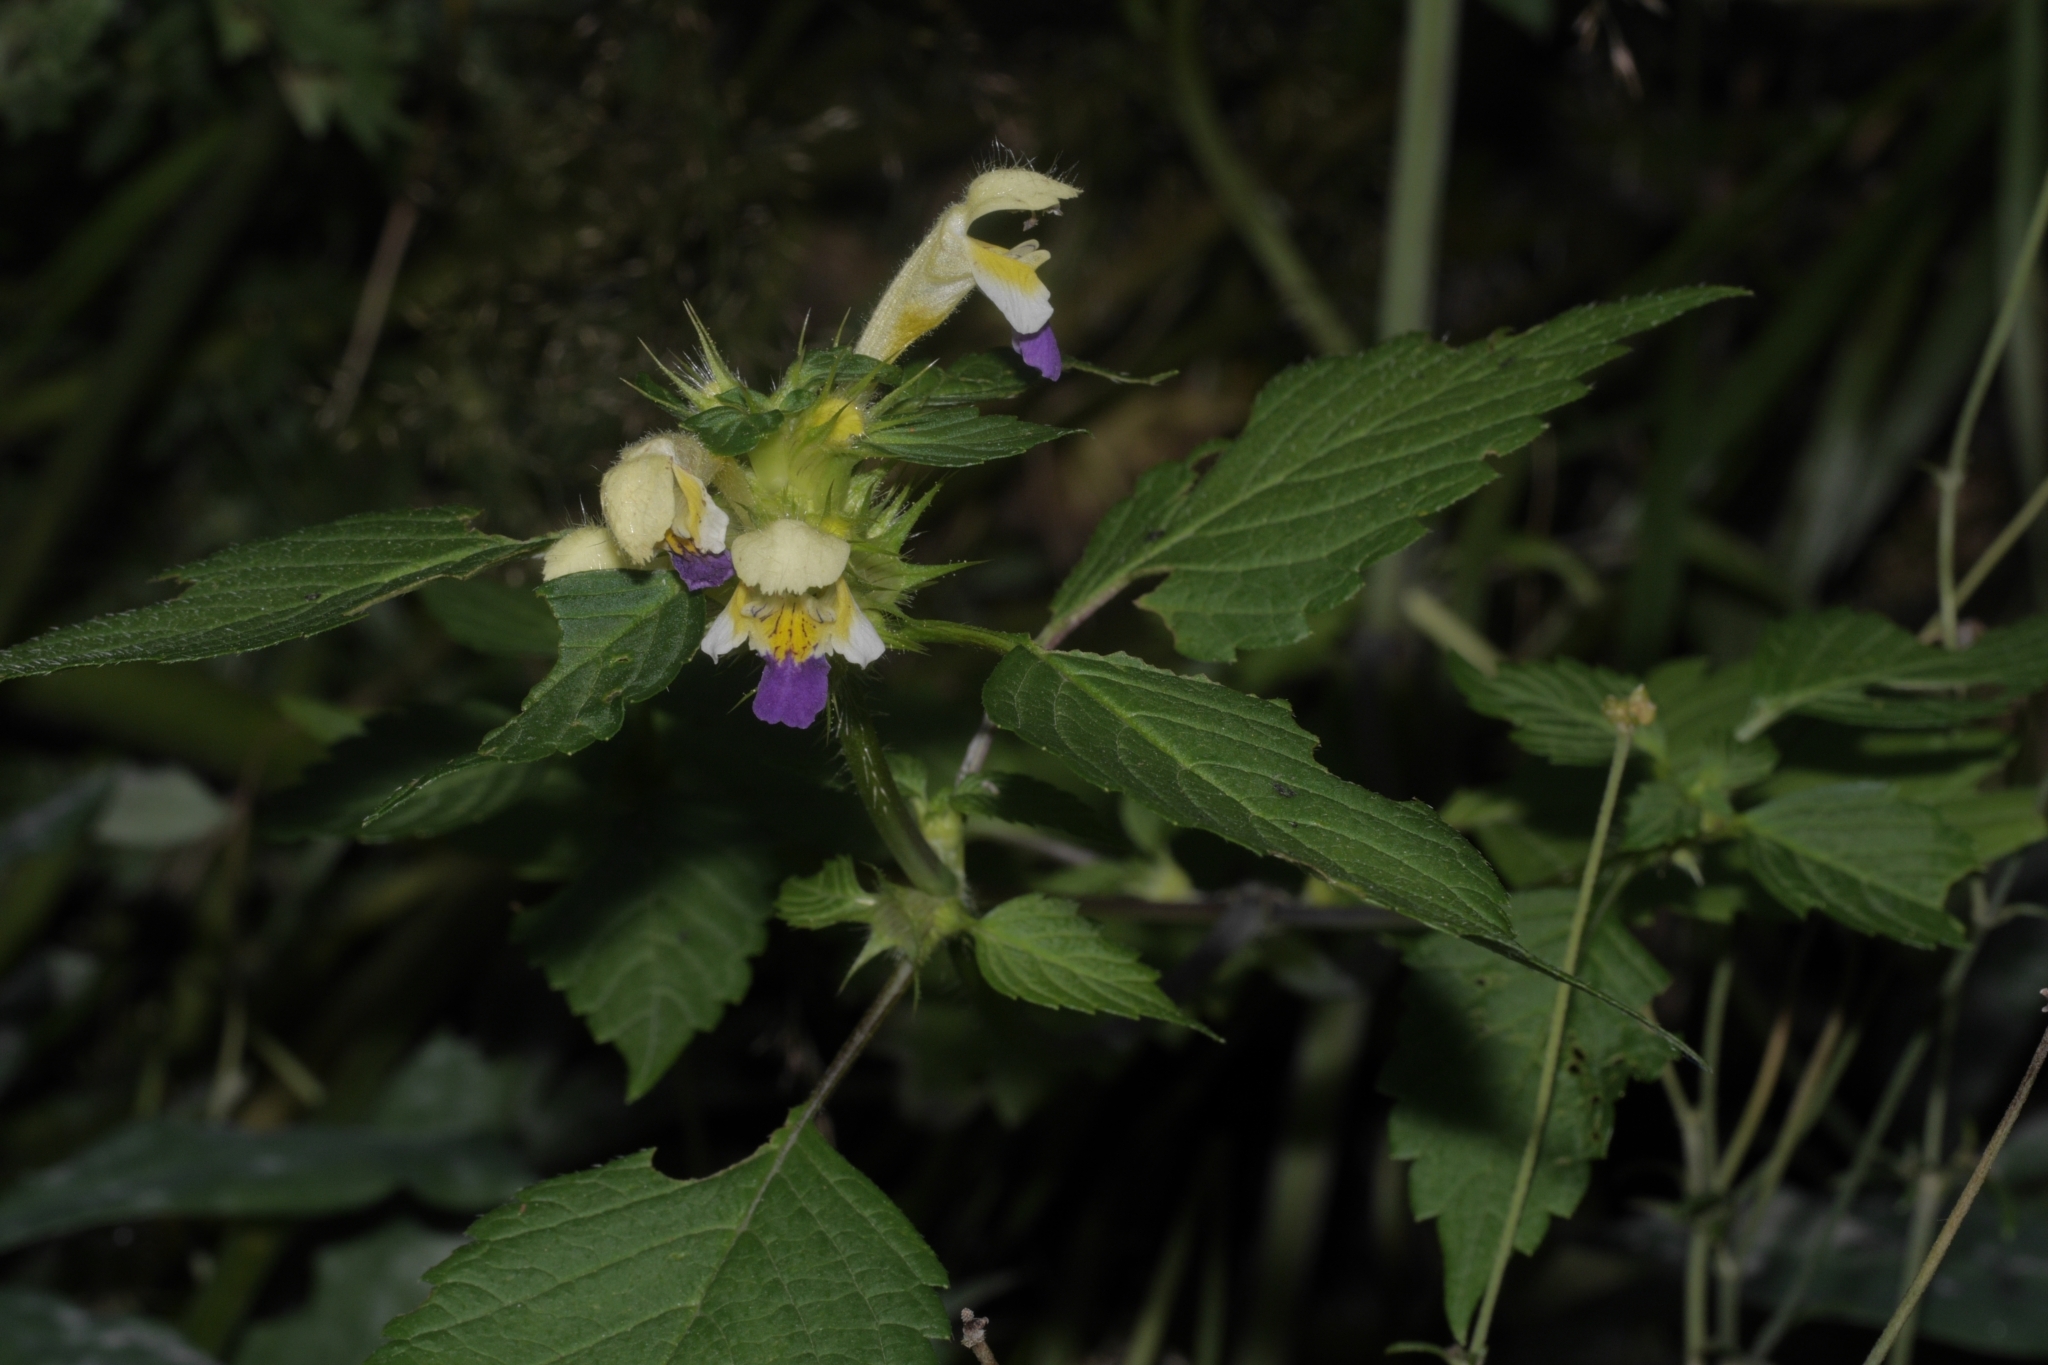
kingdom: Plantae
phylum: Tracheophyta
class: Magnoliopsida
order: Lamiales
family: Lamiaceae
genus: Galeopsis
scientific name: Galeopsis speciosa
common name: Large-flowered hemp-nettle
